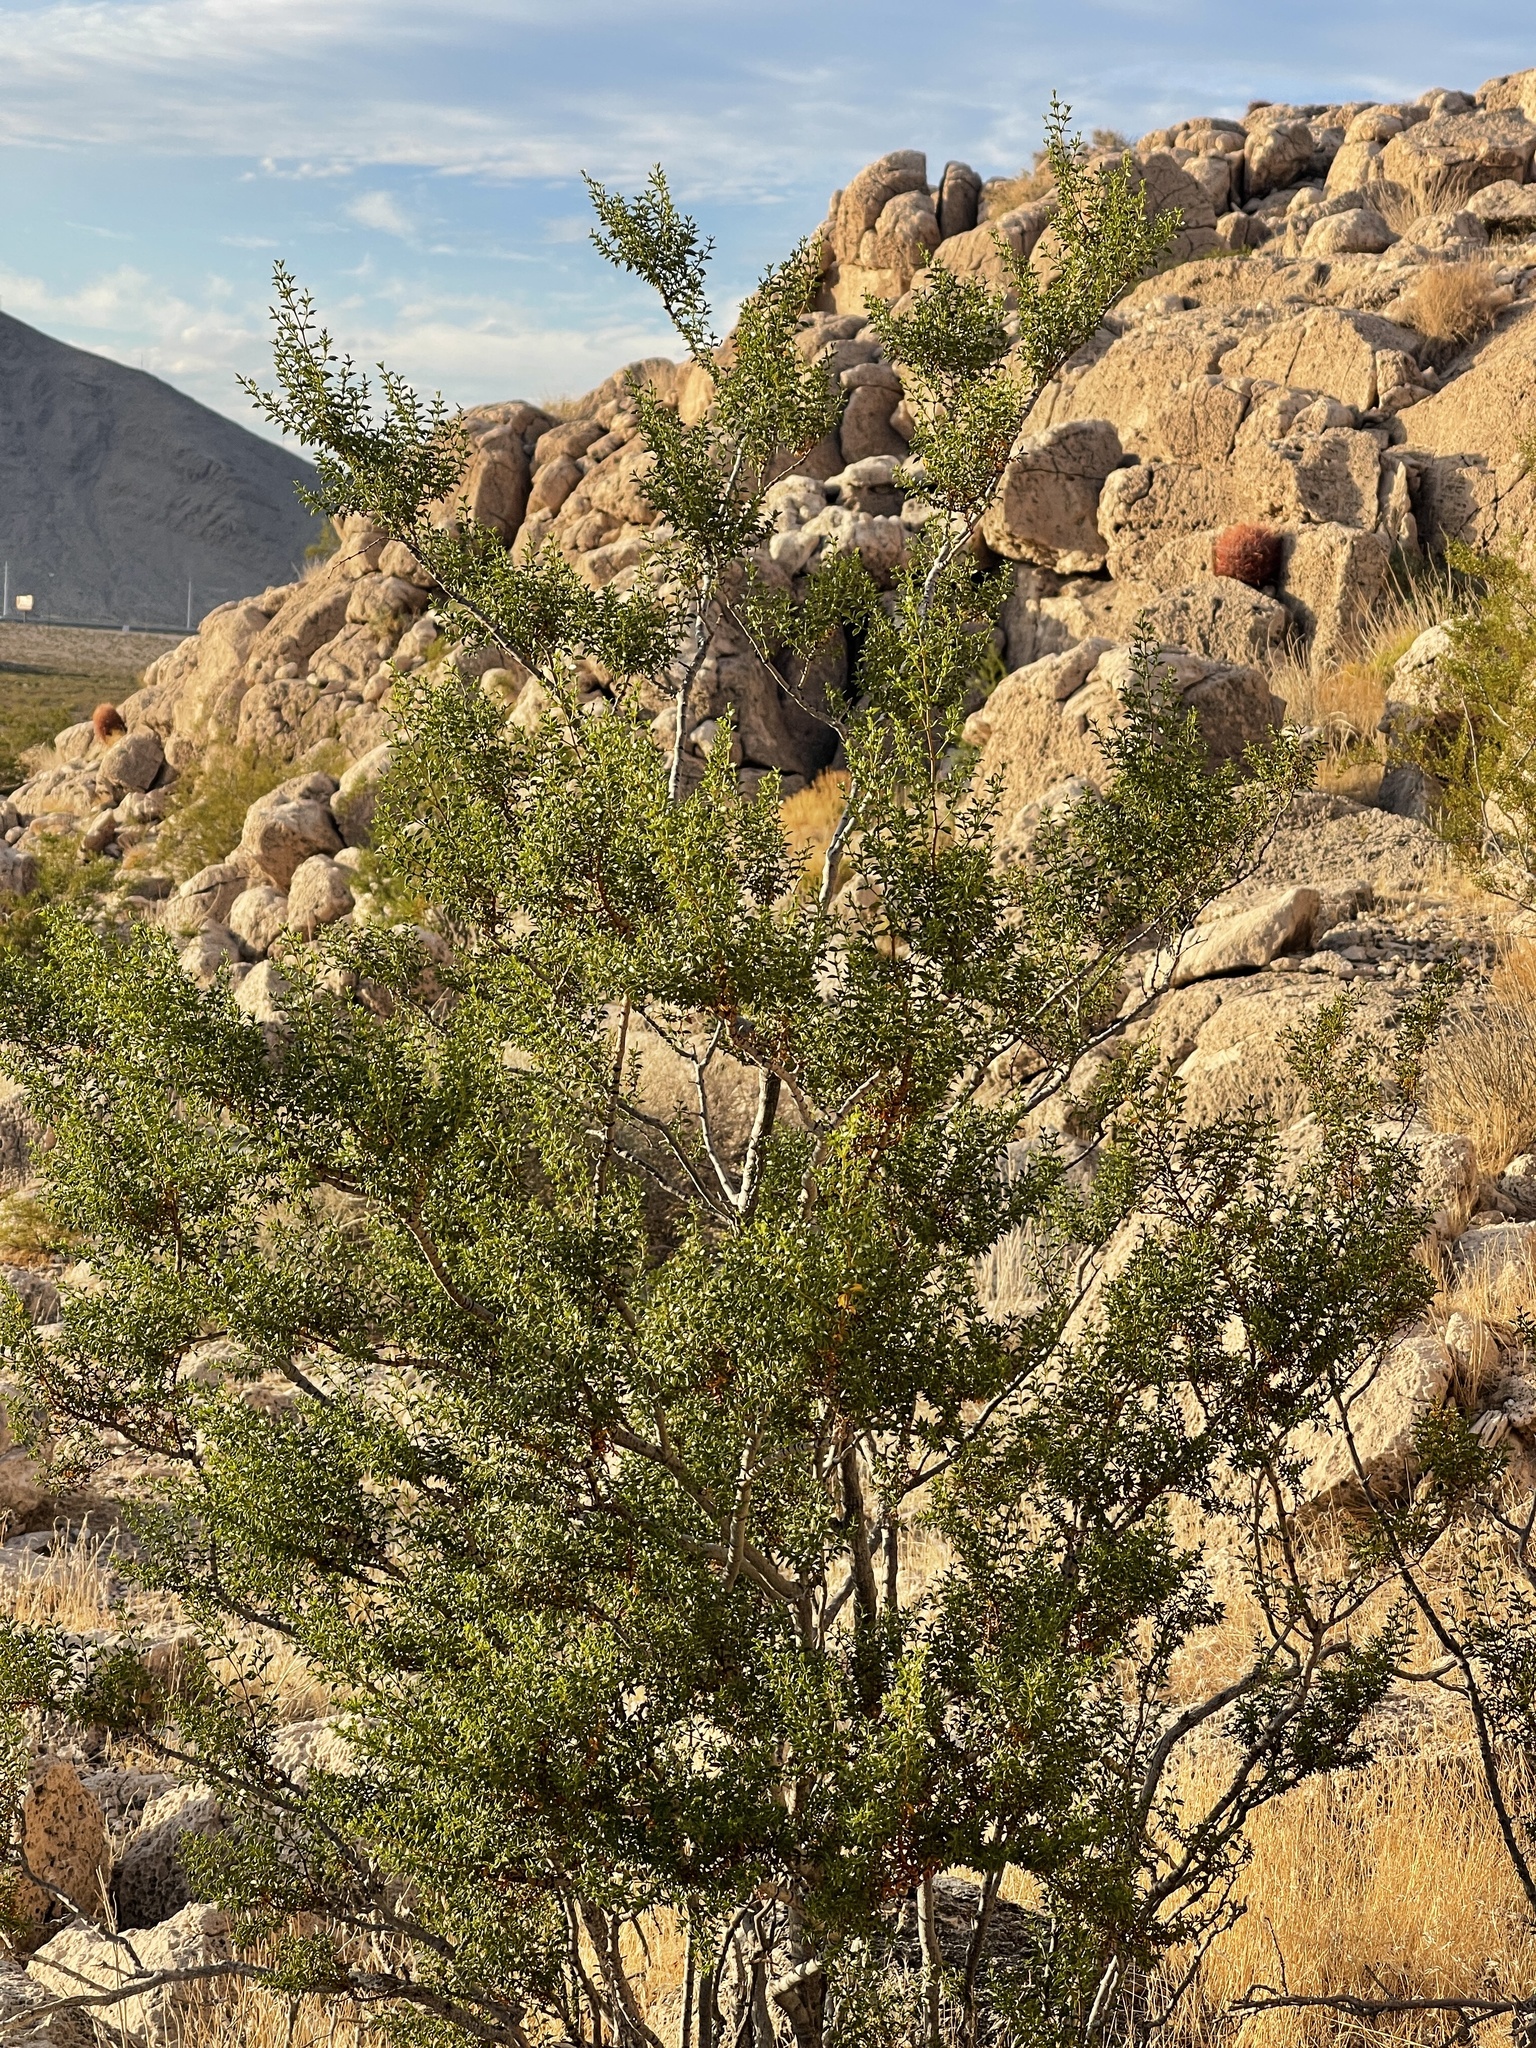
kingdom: Plantae
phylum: Tracheophyta
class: Magnoliopsida
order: Zygophyllales
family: Zygophyllaceae
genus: Larrea
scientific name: Larrea tridentata
